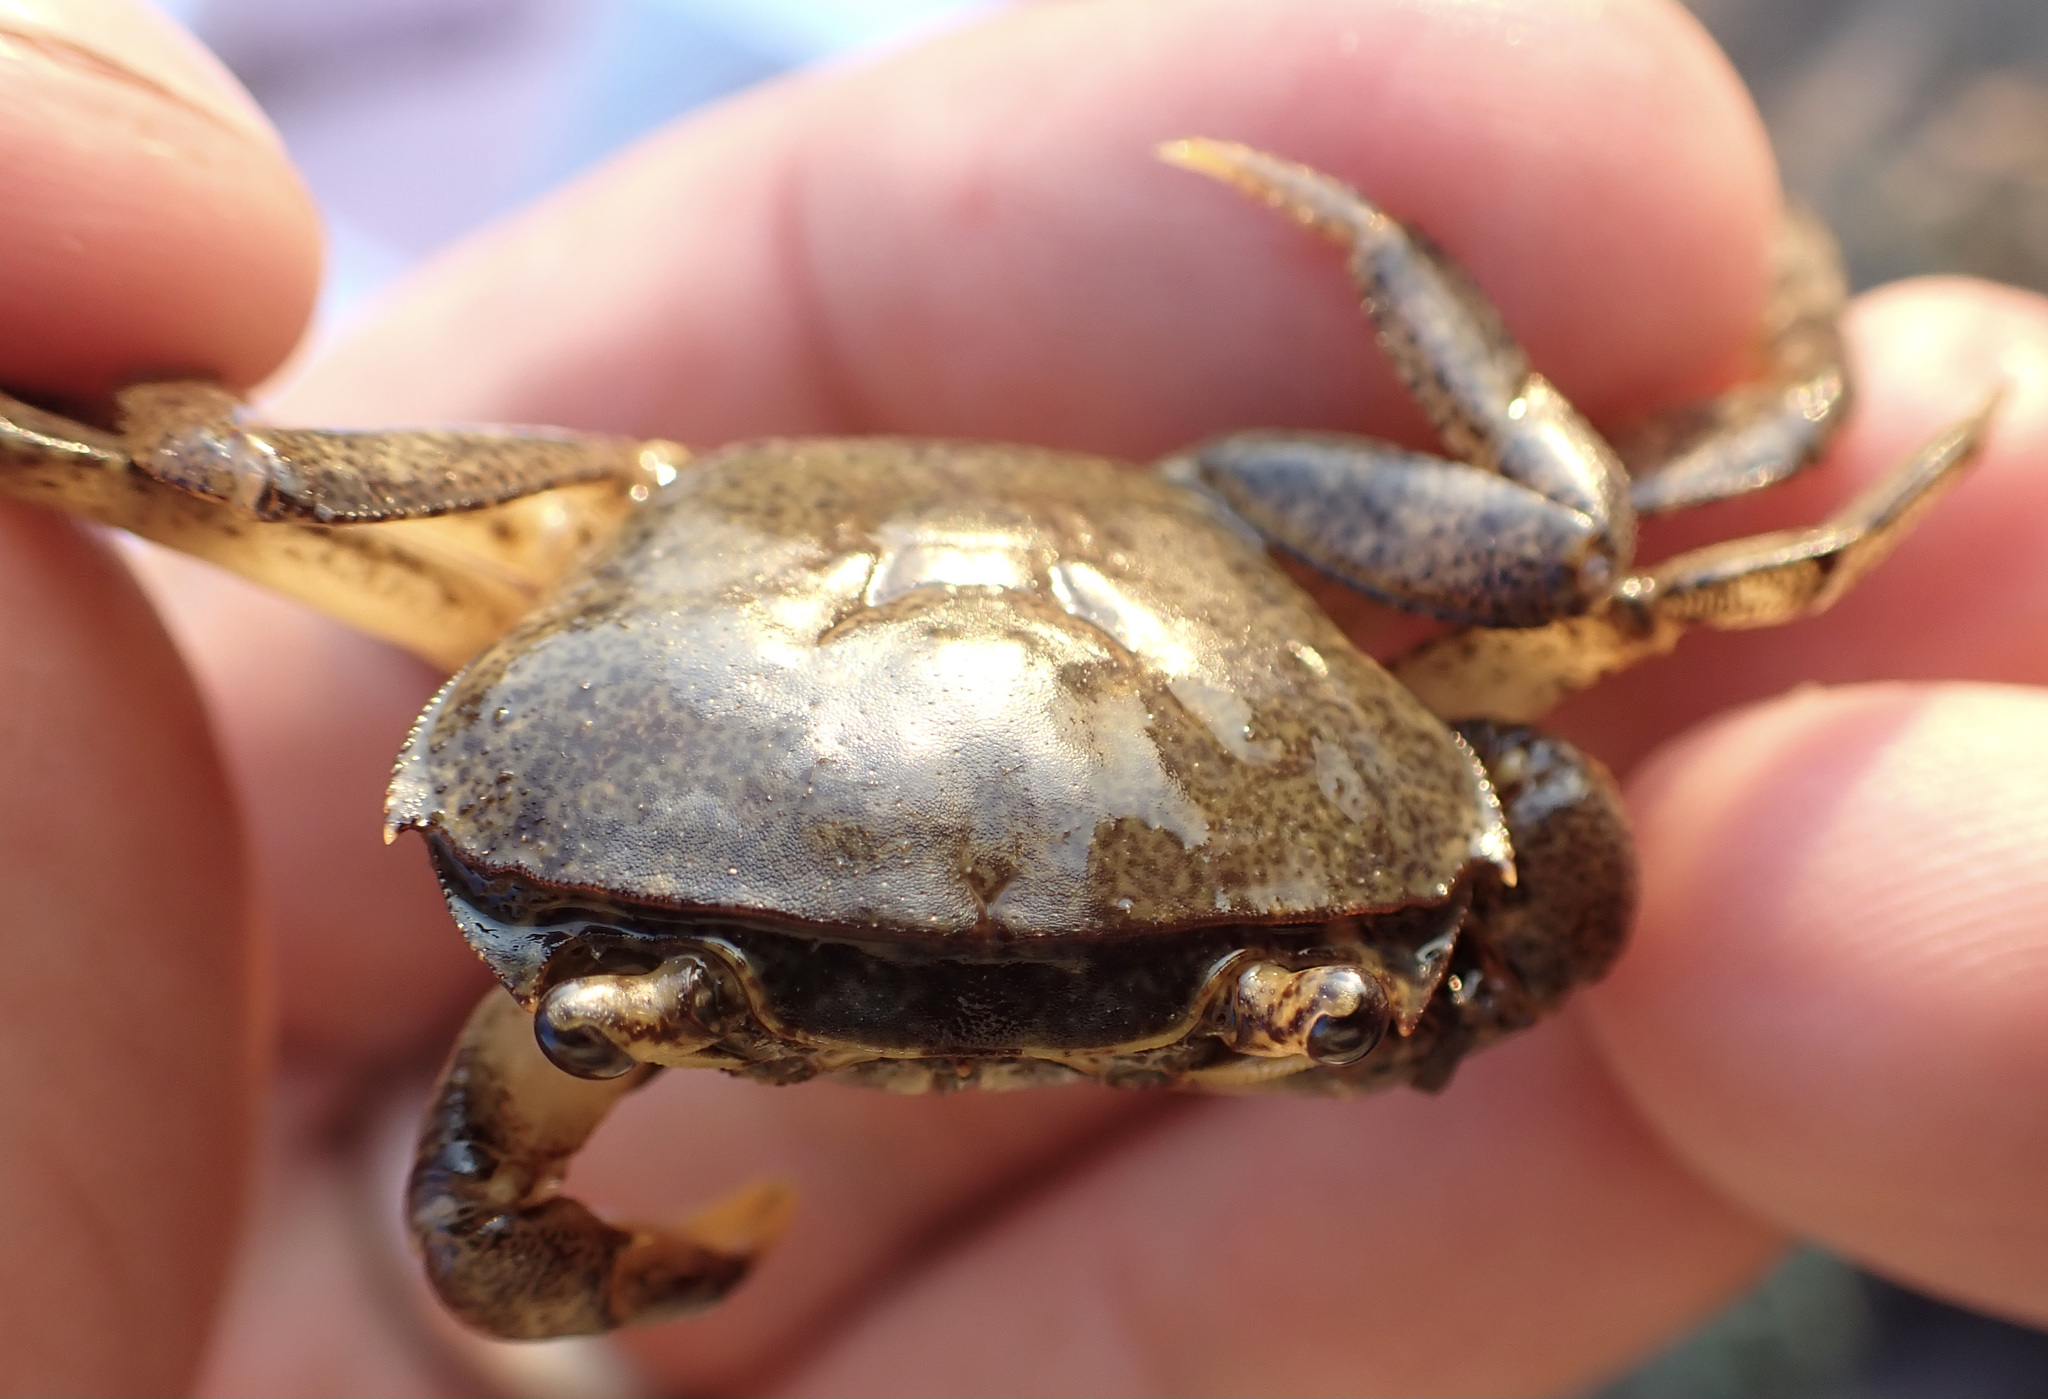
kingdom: Animalia
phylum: Arthropoda
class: Malacostraca
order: Decapoda
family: Potamonautidae
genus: Potamonautes
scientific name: Potamonautes bayonianus
